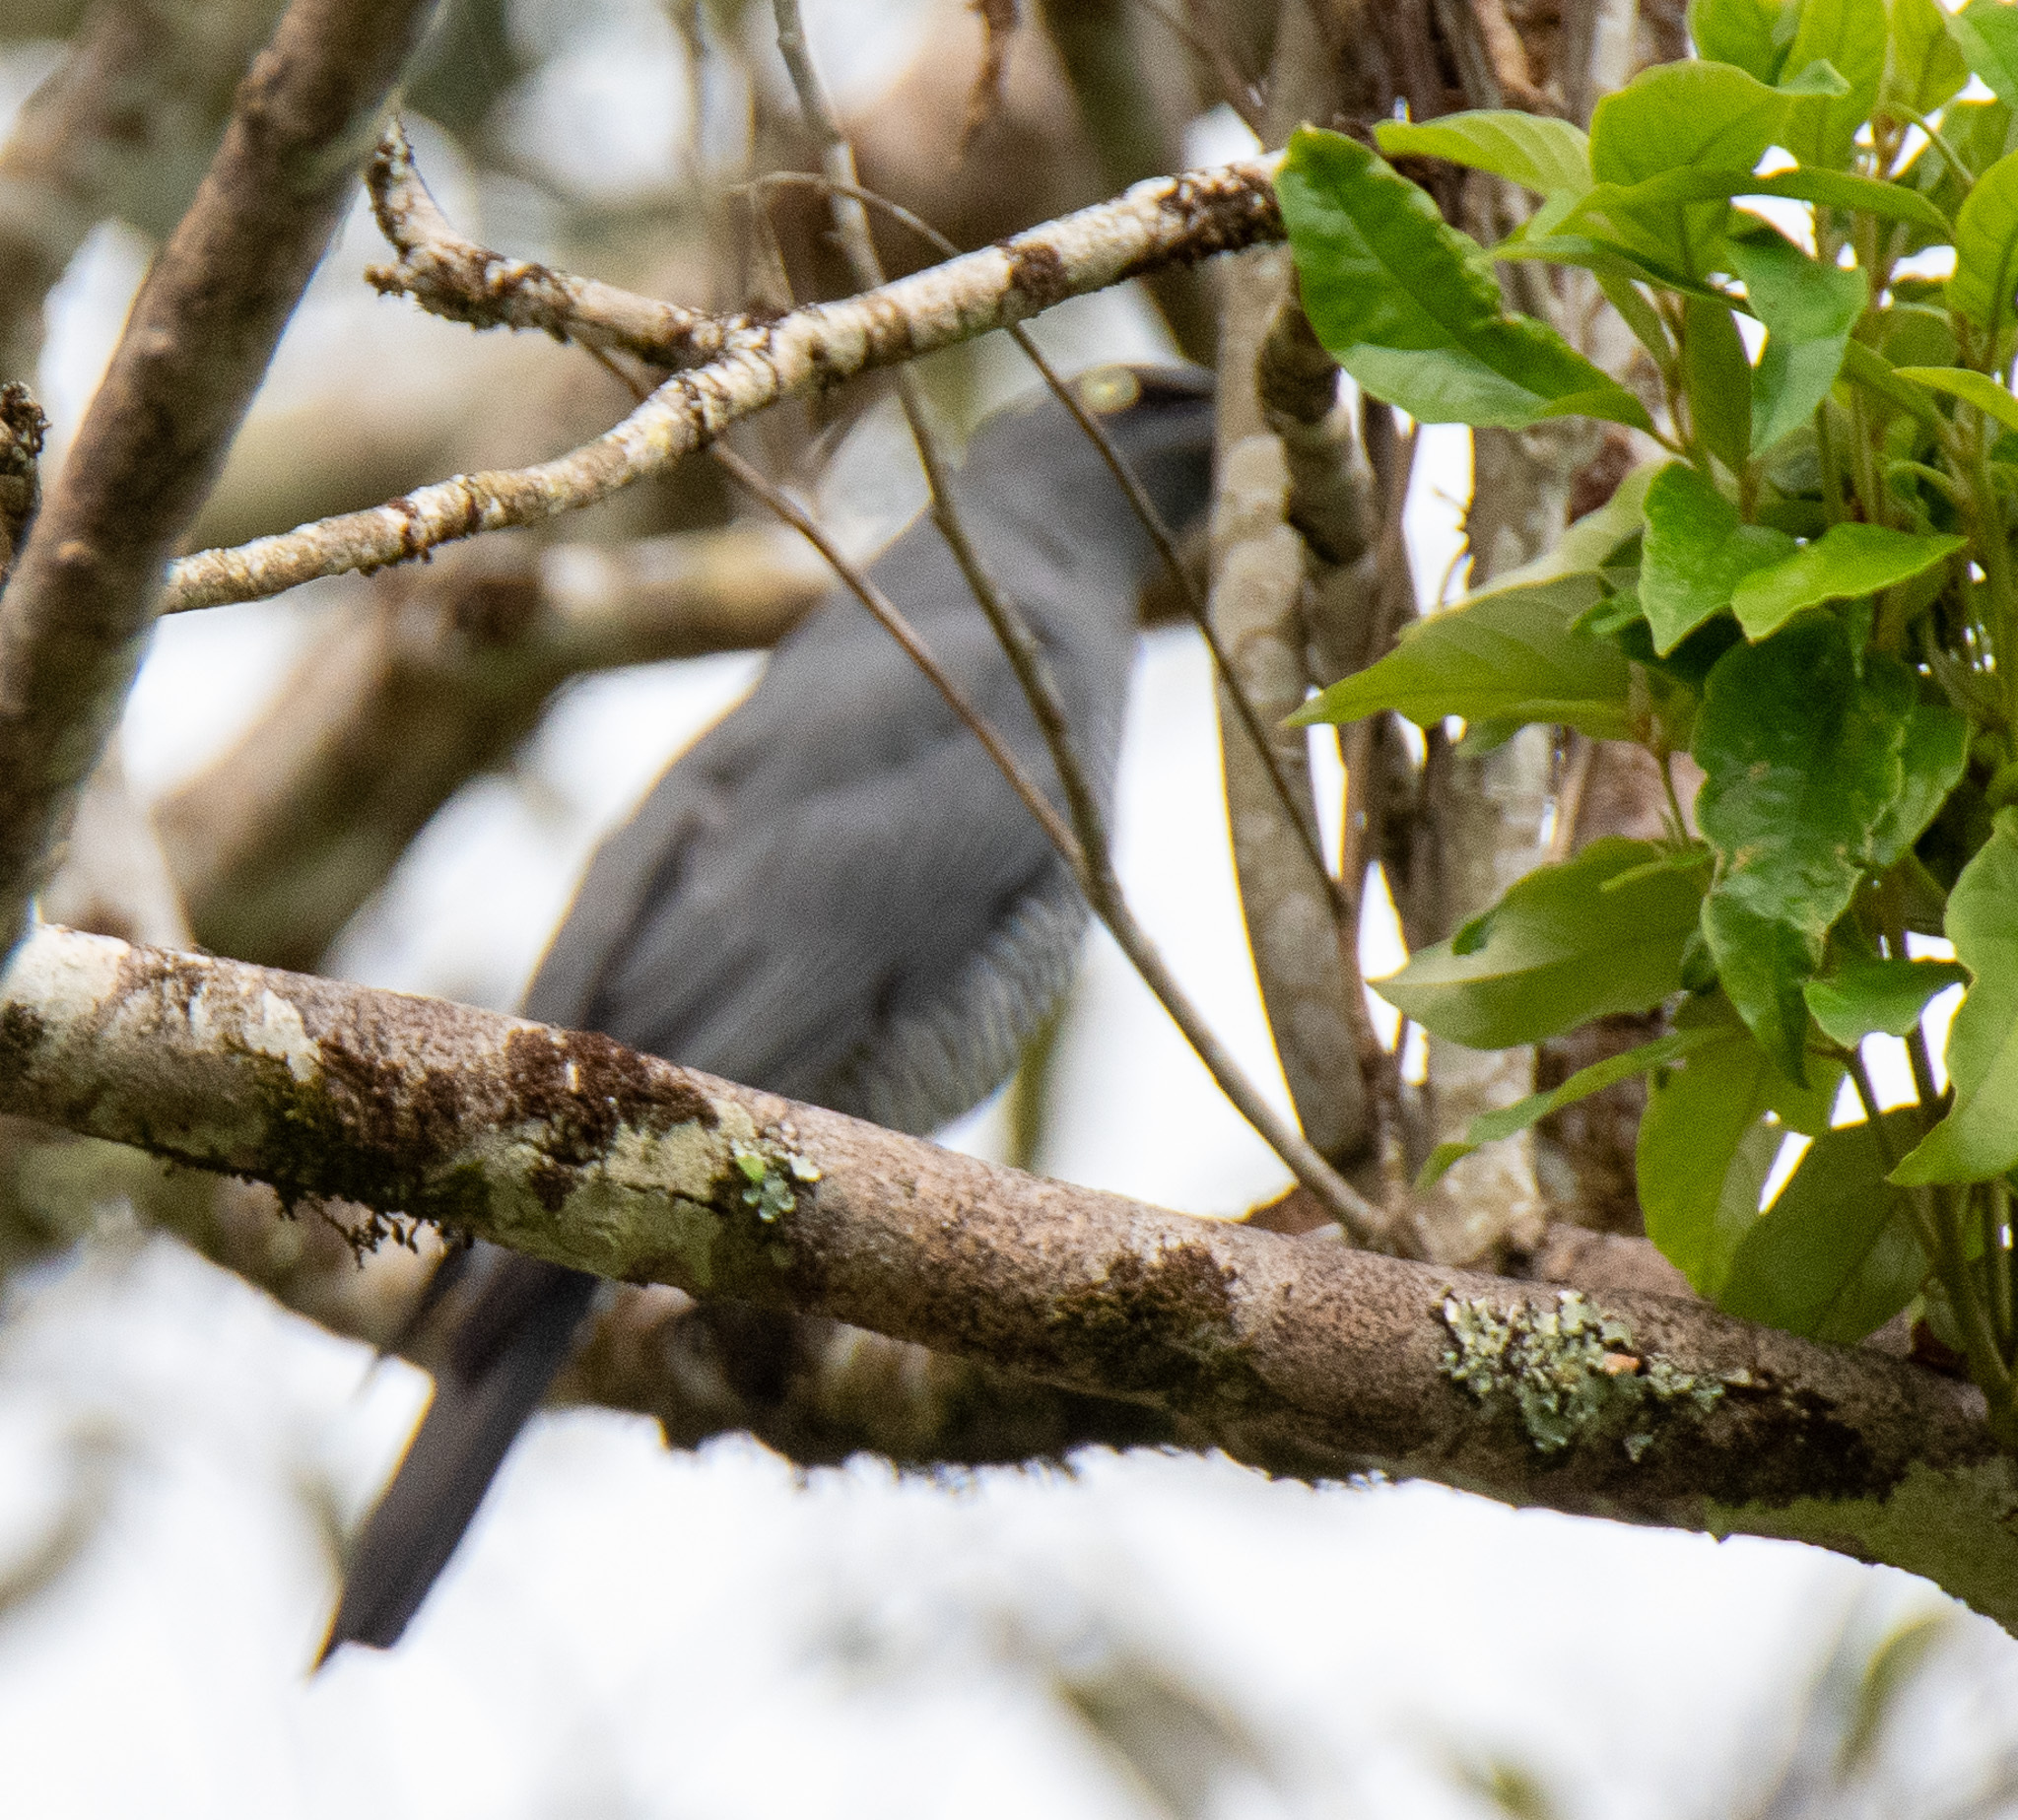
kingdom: Animalia
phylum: Chordata
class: Aves
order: Passeriformes
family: Campephagidae
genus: Coracina
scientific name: Coracina lineata
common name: Barred cuckooshrike
